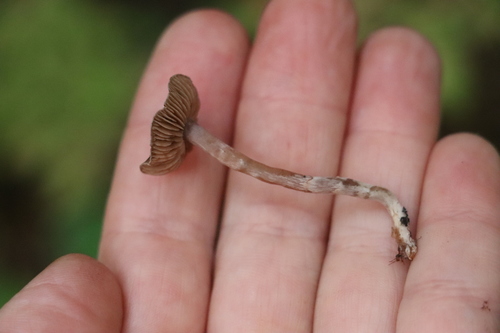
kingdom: Fungi
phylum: Basidiomycota
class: Agaricomycetes
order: Agaricales
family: Cortinariaceae
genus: Cortinarius
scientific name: Cortinarius
